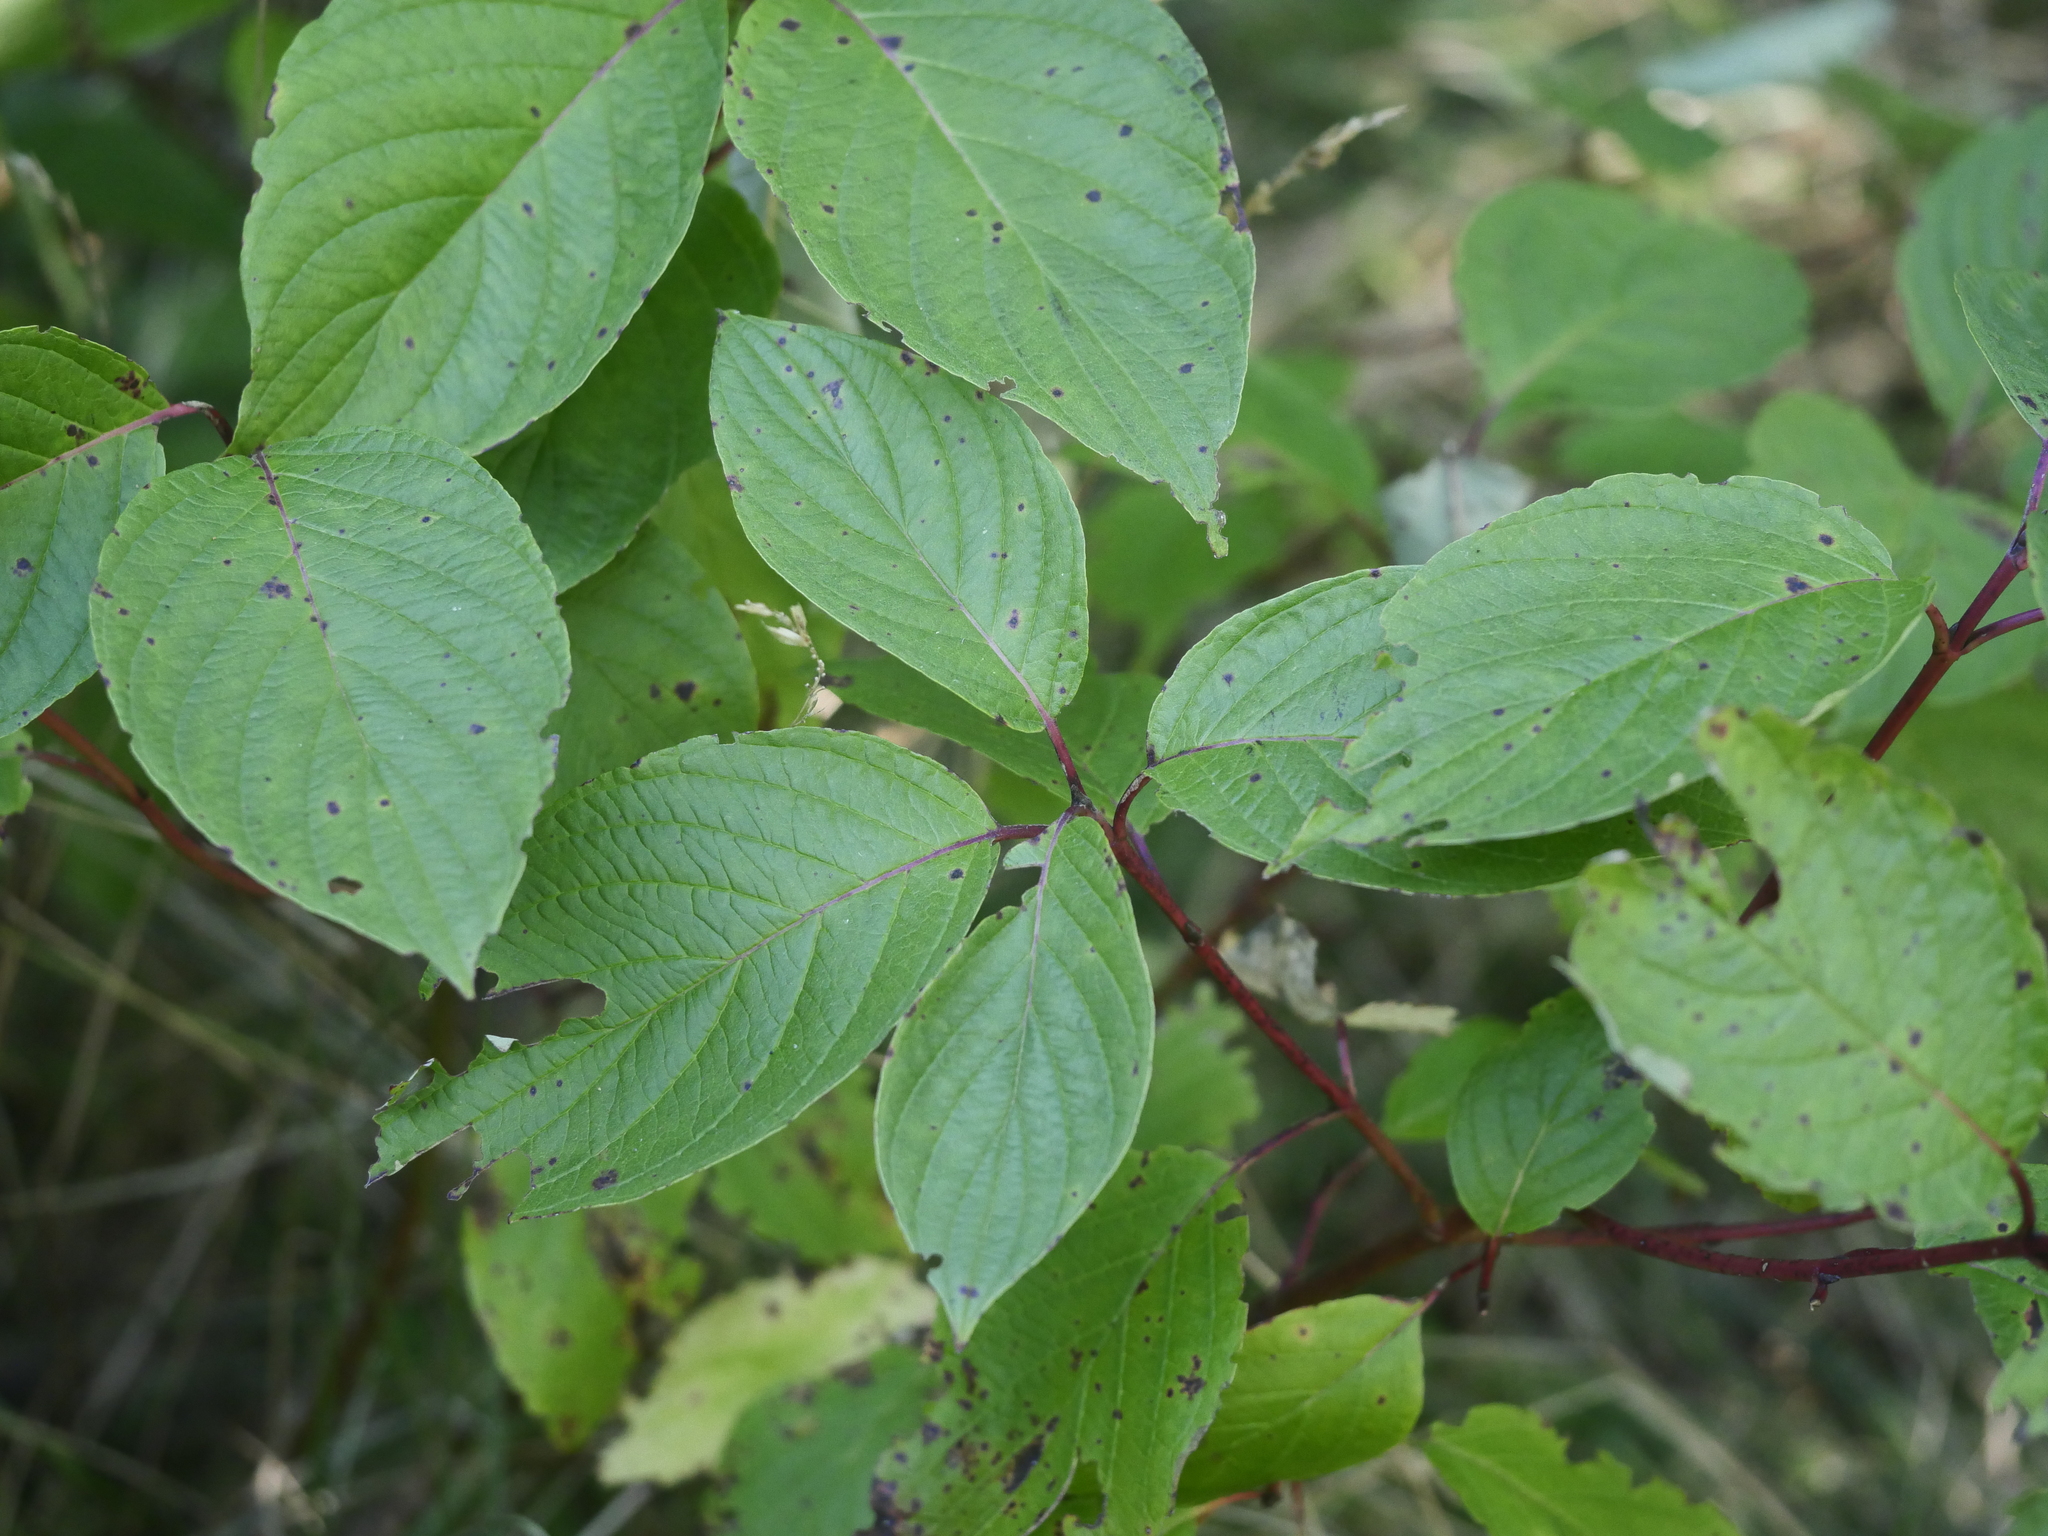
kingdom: Plantae
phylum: Tracheophyta
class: Magnoliopsida
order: Cornales
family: Cornaceae
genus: Cornus
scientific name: Cornus sericea
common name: Red-osier dogwood
